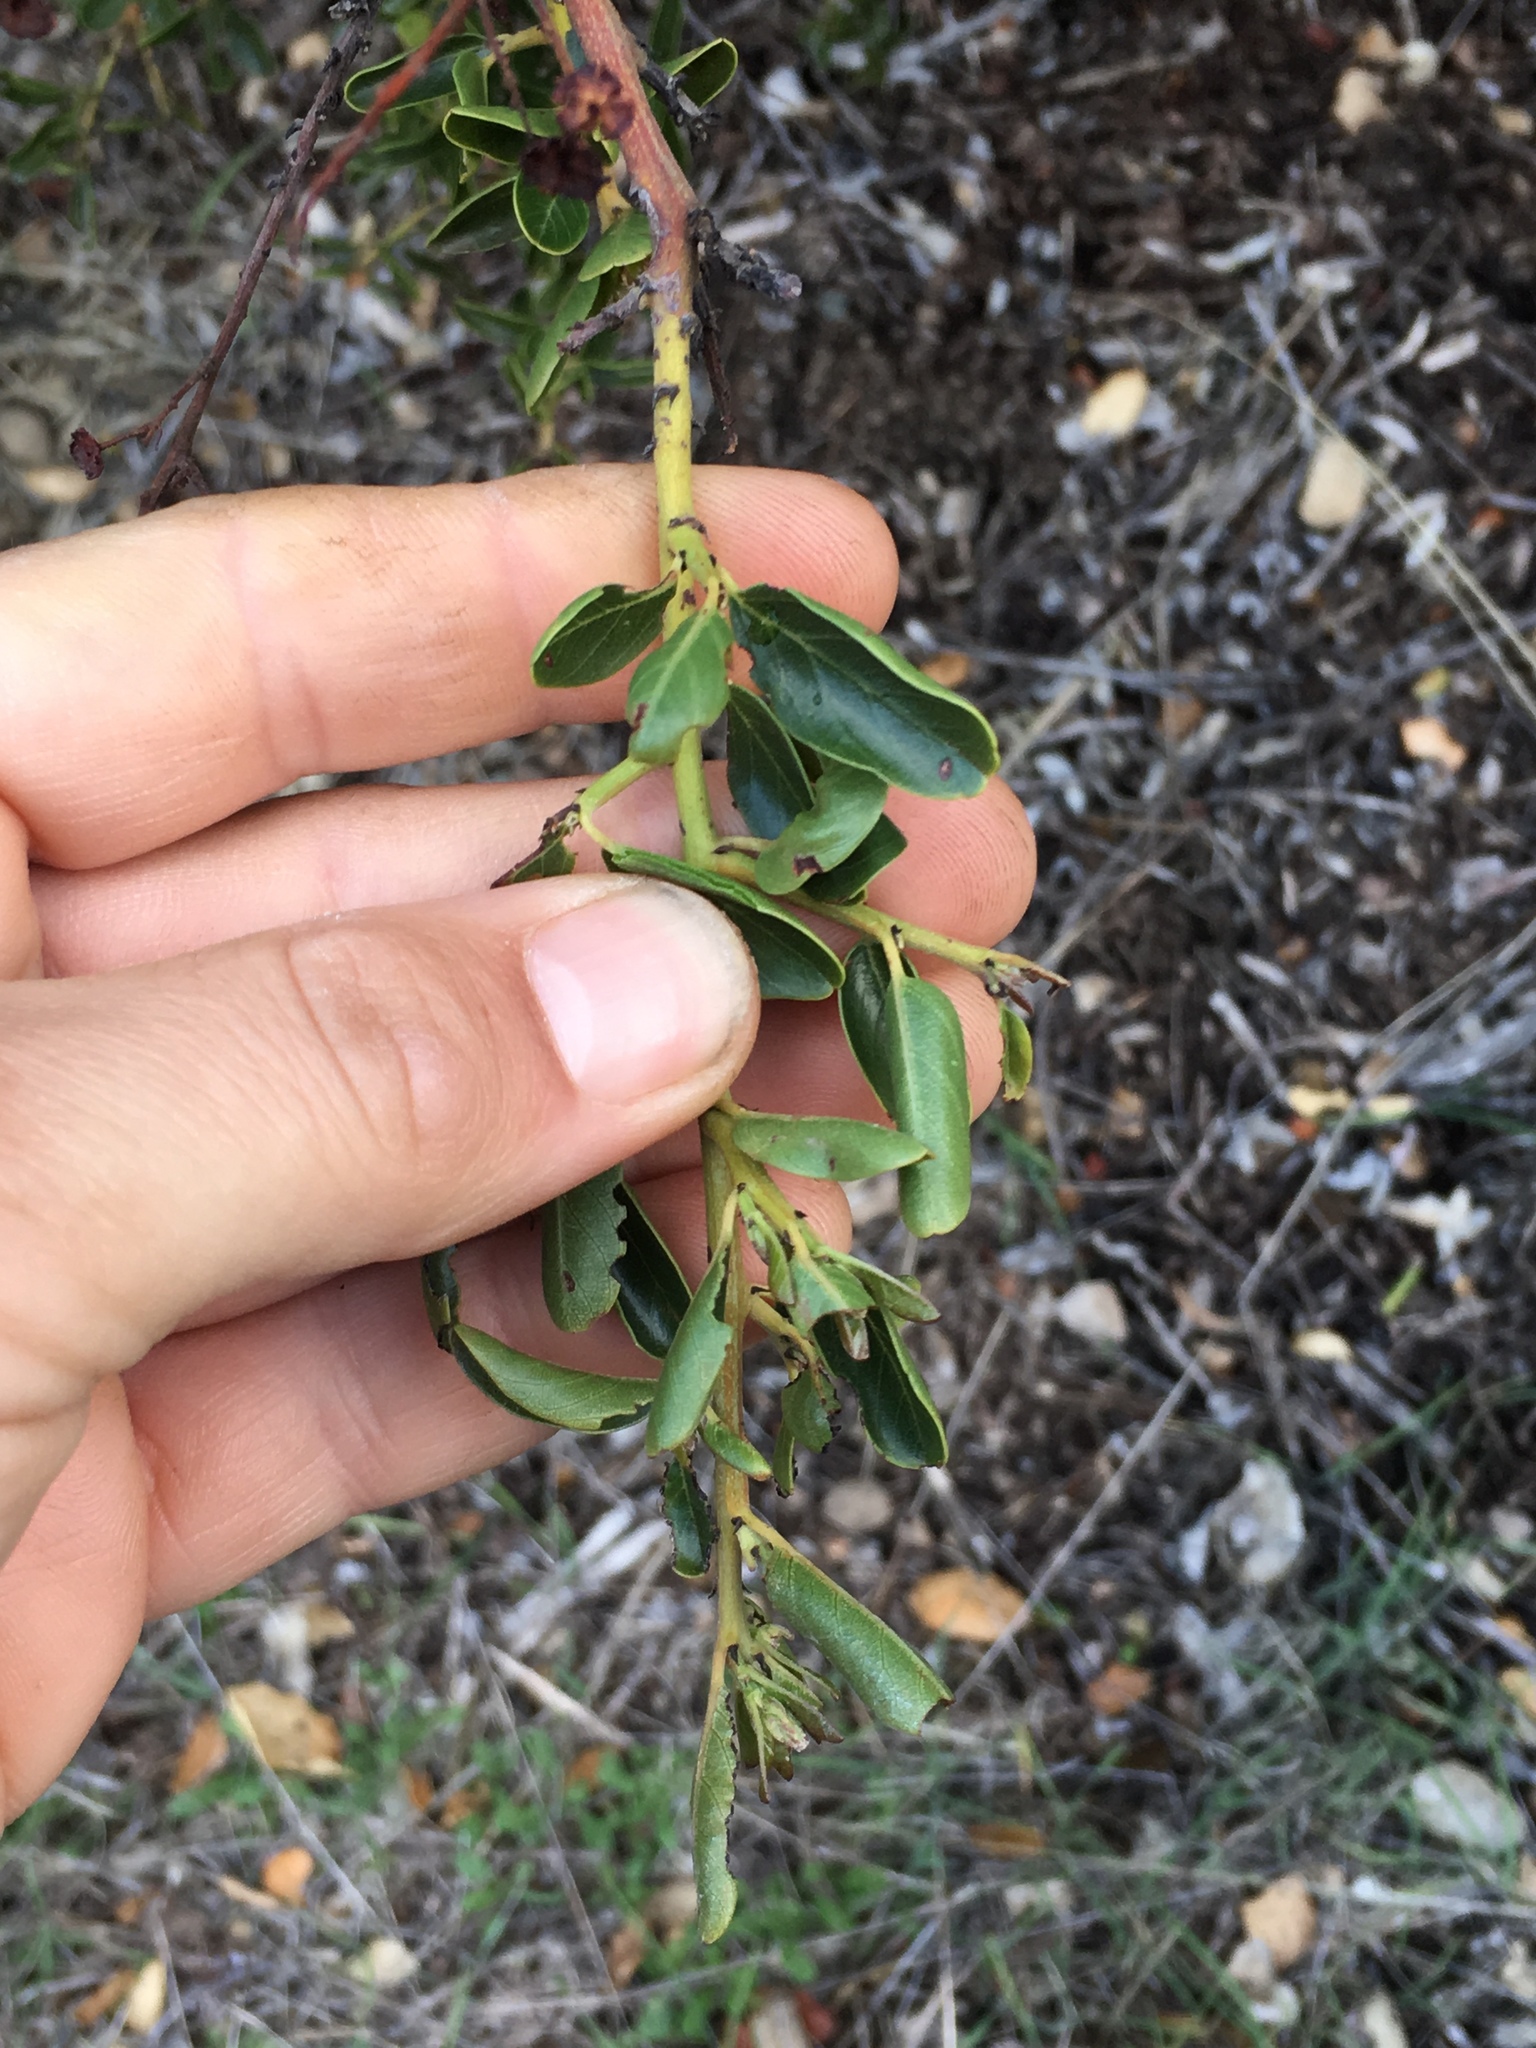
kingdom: Plantae
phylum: Tracheophyta
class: Magnoliopsida
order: Rosales
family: Rhamnaceae
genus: Ceanothus
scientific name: Ceanothus spinosus
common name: Greenbark whitethorn
